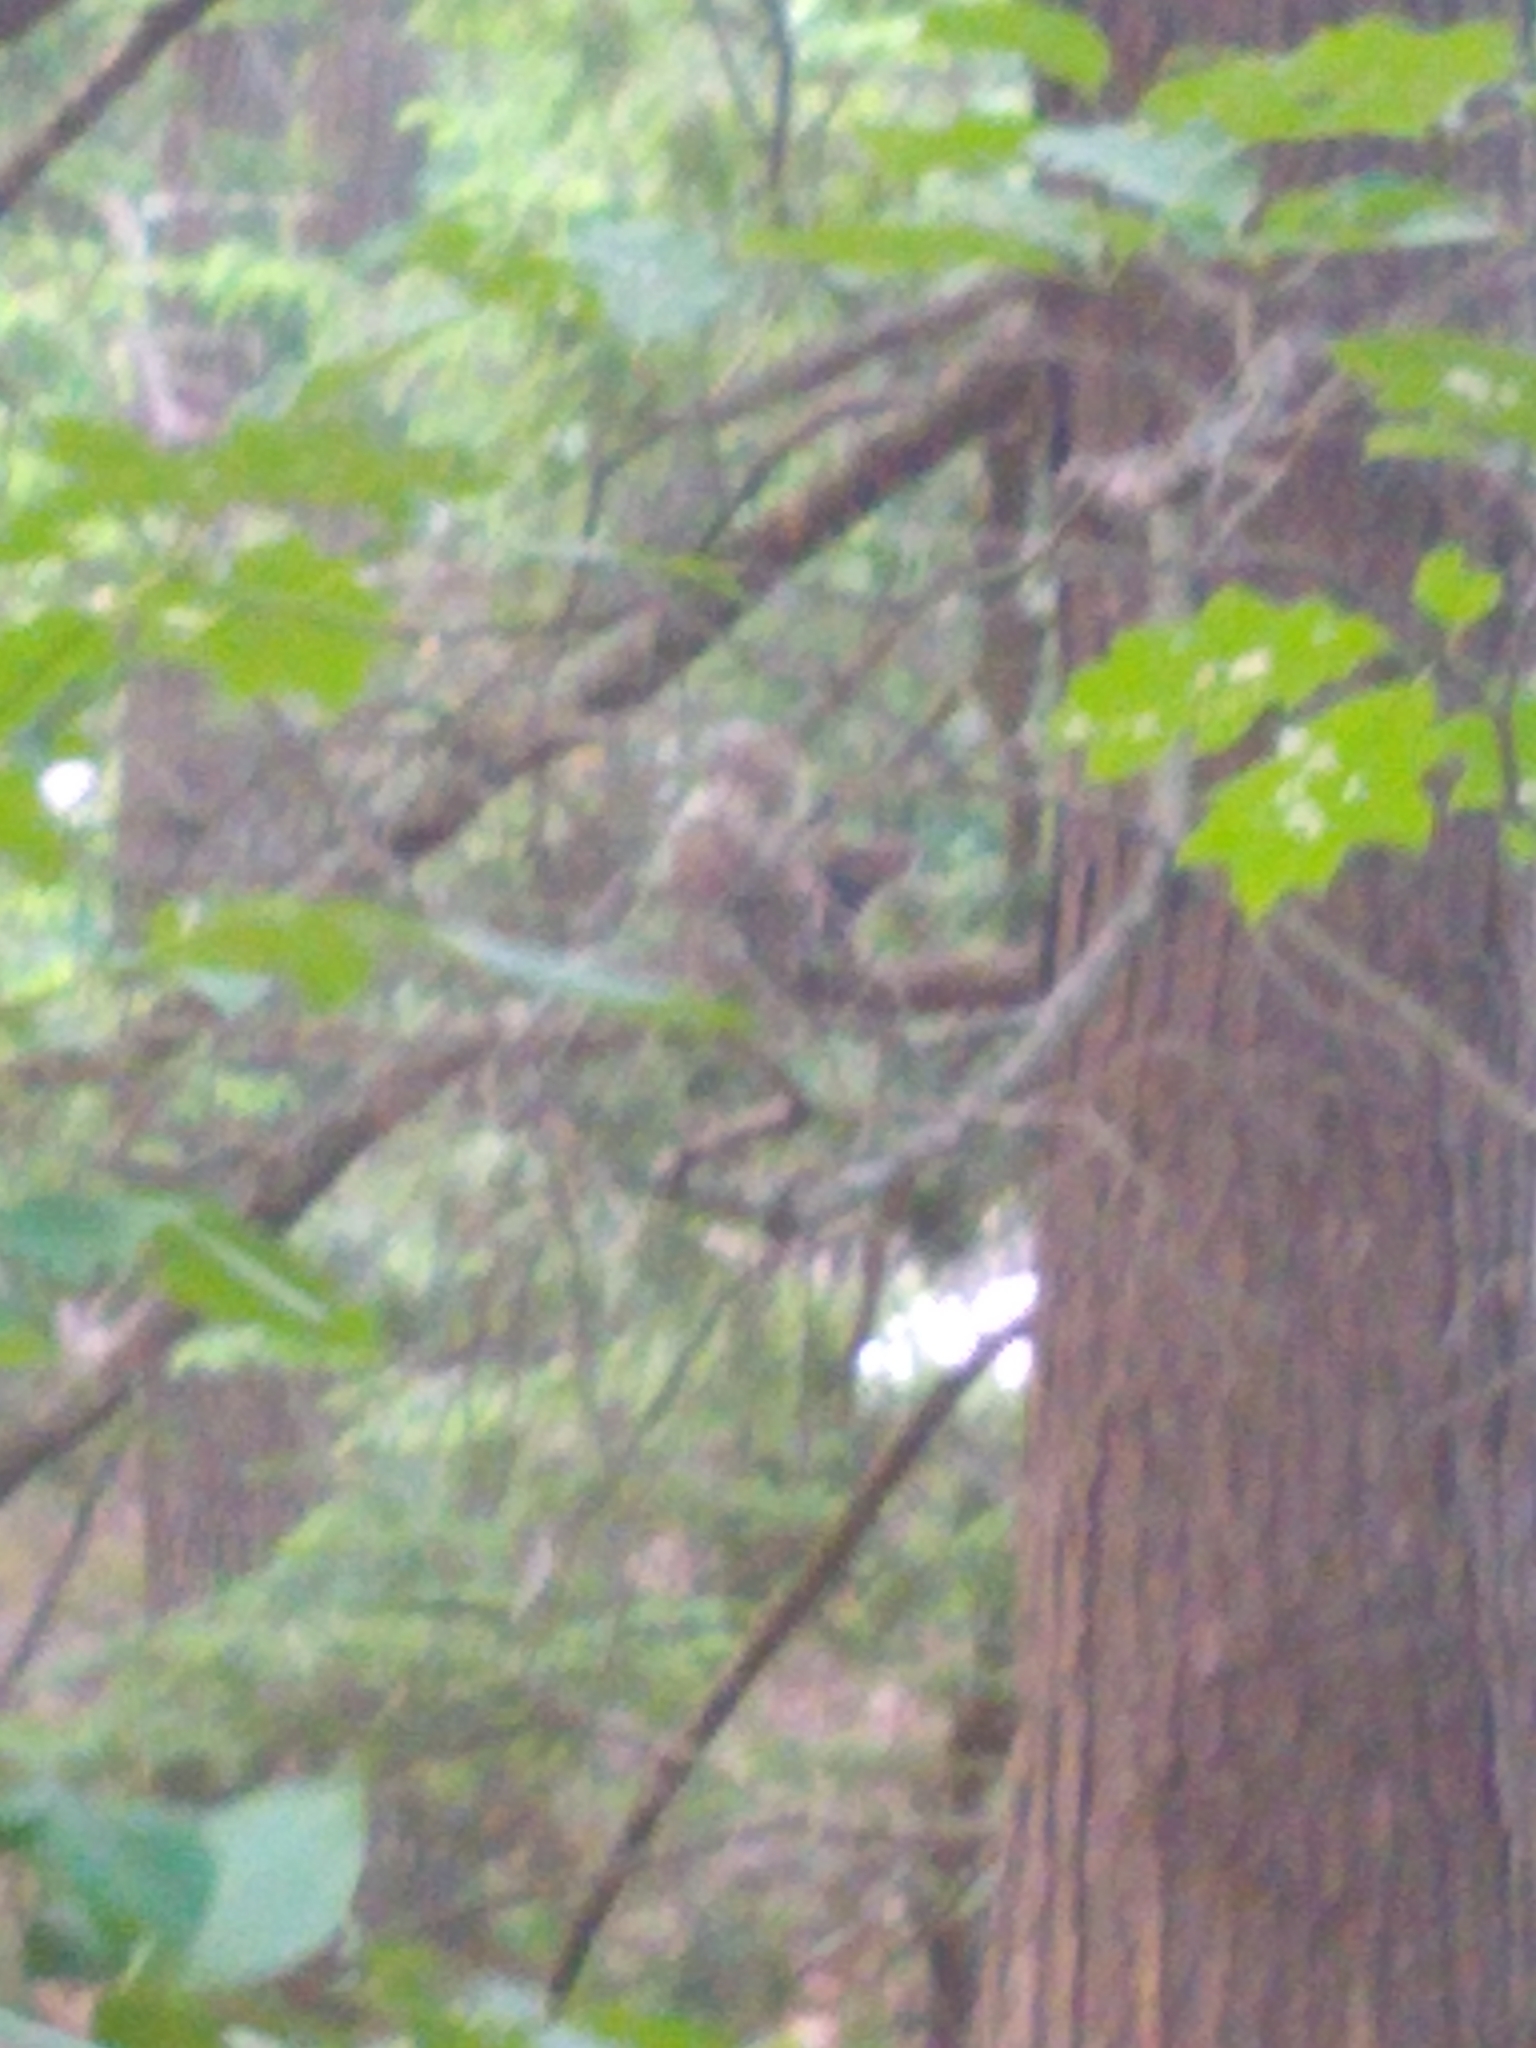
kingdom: Animalia
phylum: Chordata
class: Mammalia
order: Rodentia
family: Sciuridae
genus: Sciurus
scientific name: Sciurus carolinensis
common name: Eastern gray squirrel
